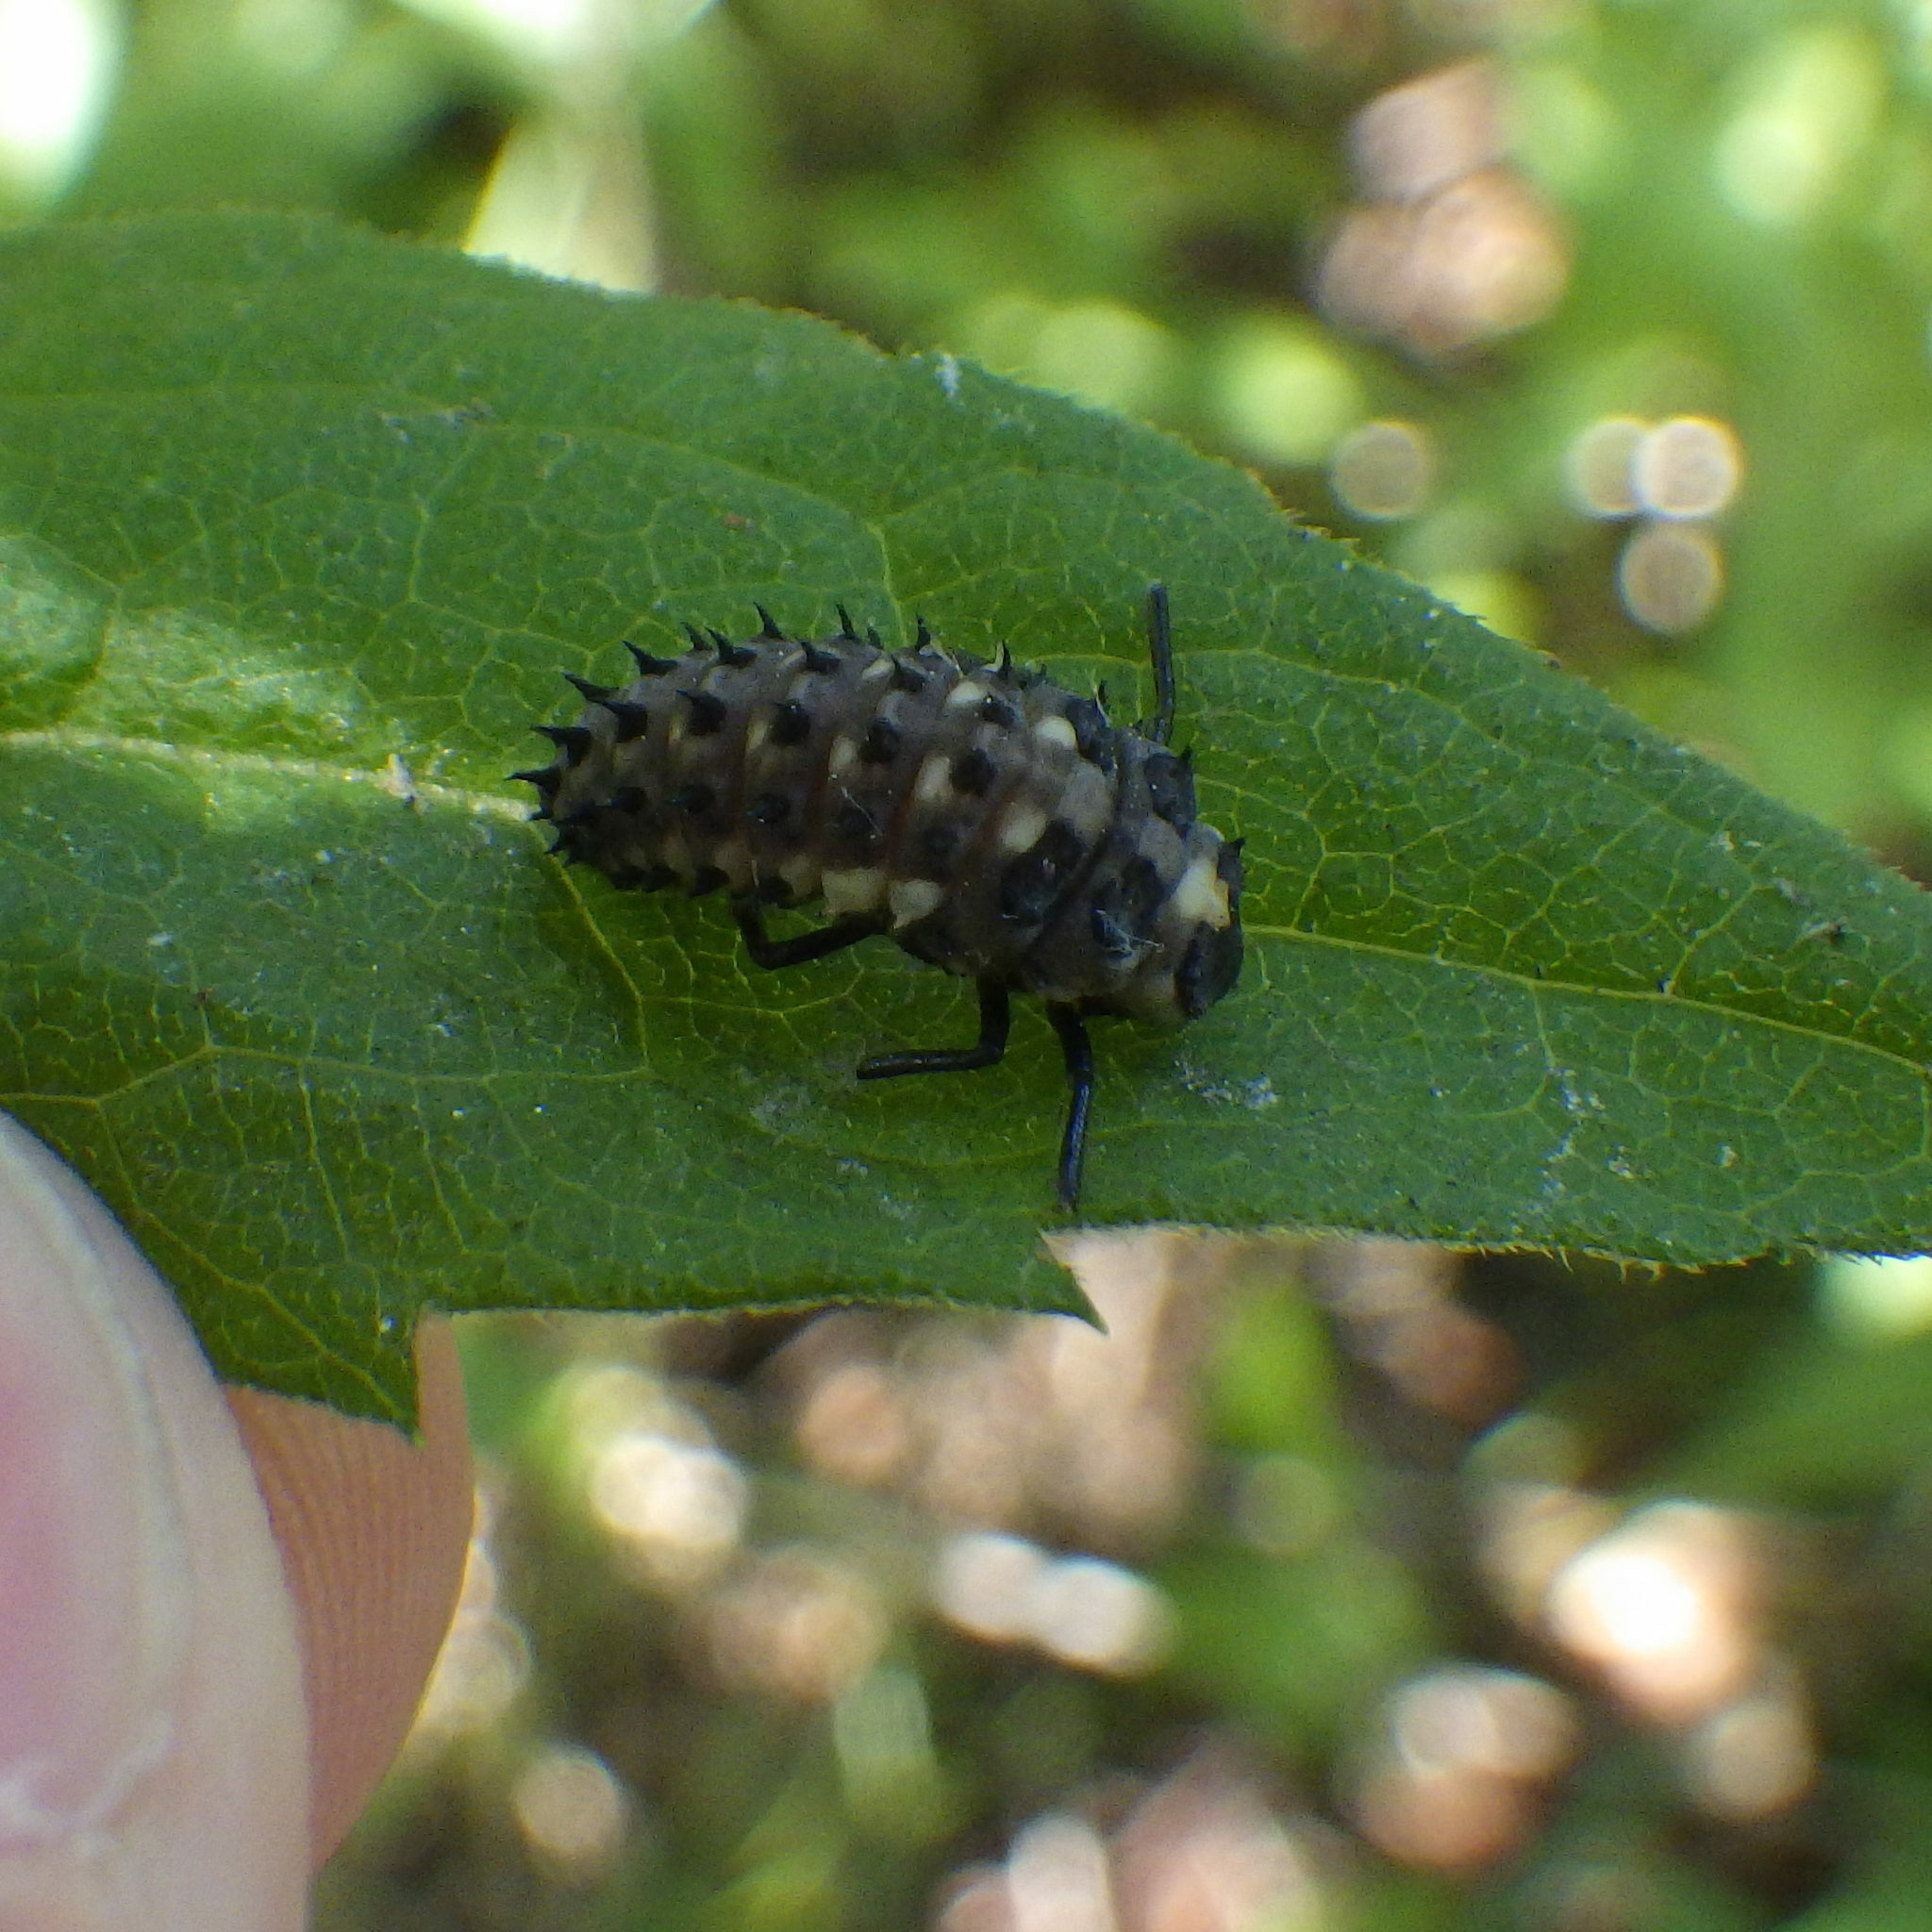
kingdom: Animalia
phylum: Arthropoda
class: Insecta
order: Coleoptera
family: Coccinellidae
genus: Anatis
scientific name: Anatis mali
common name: Eye-spotted lady beetle
